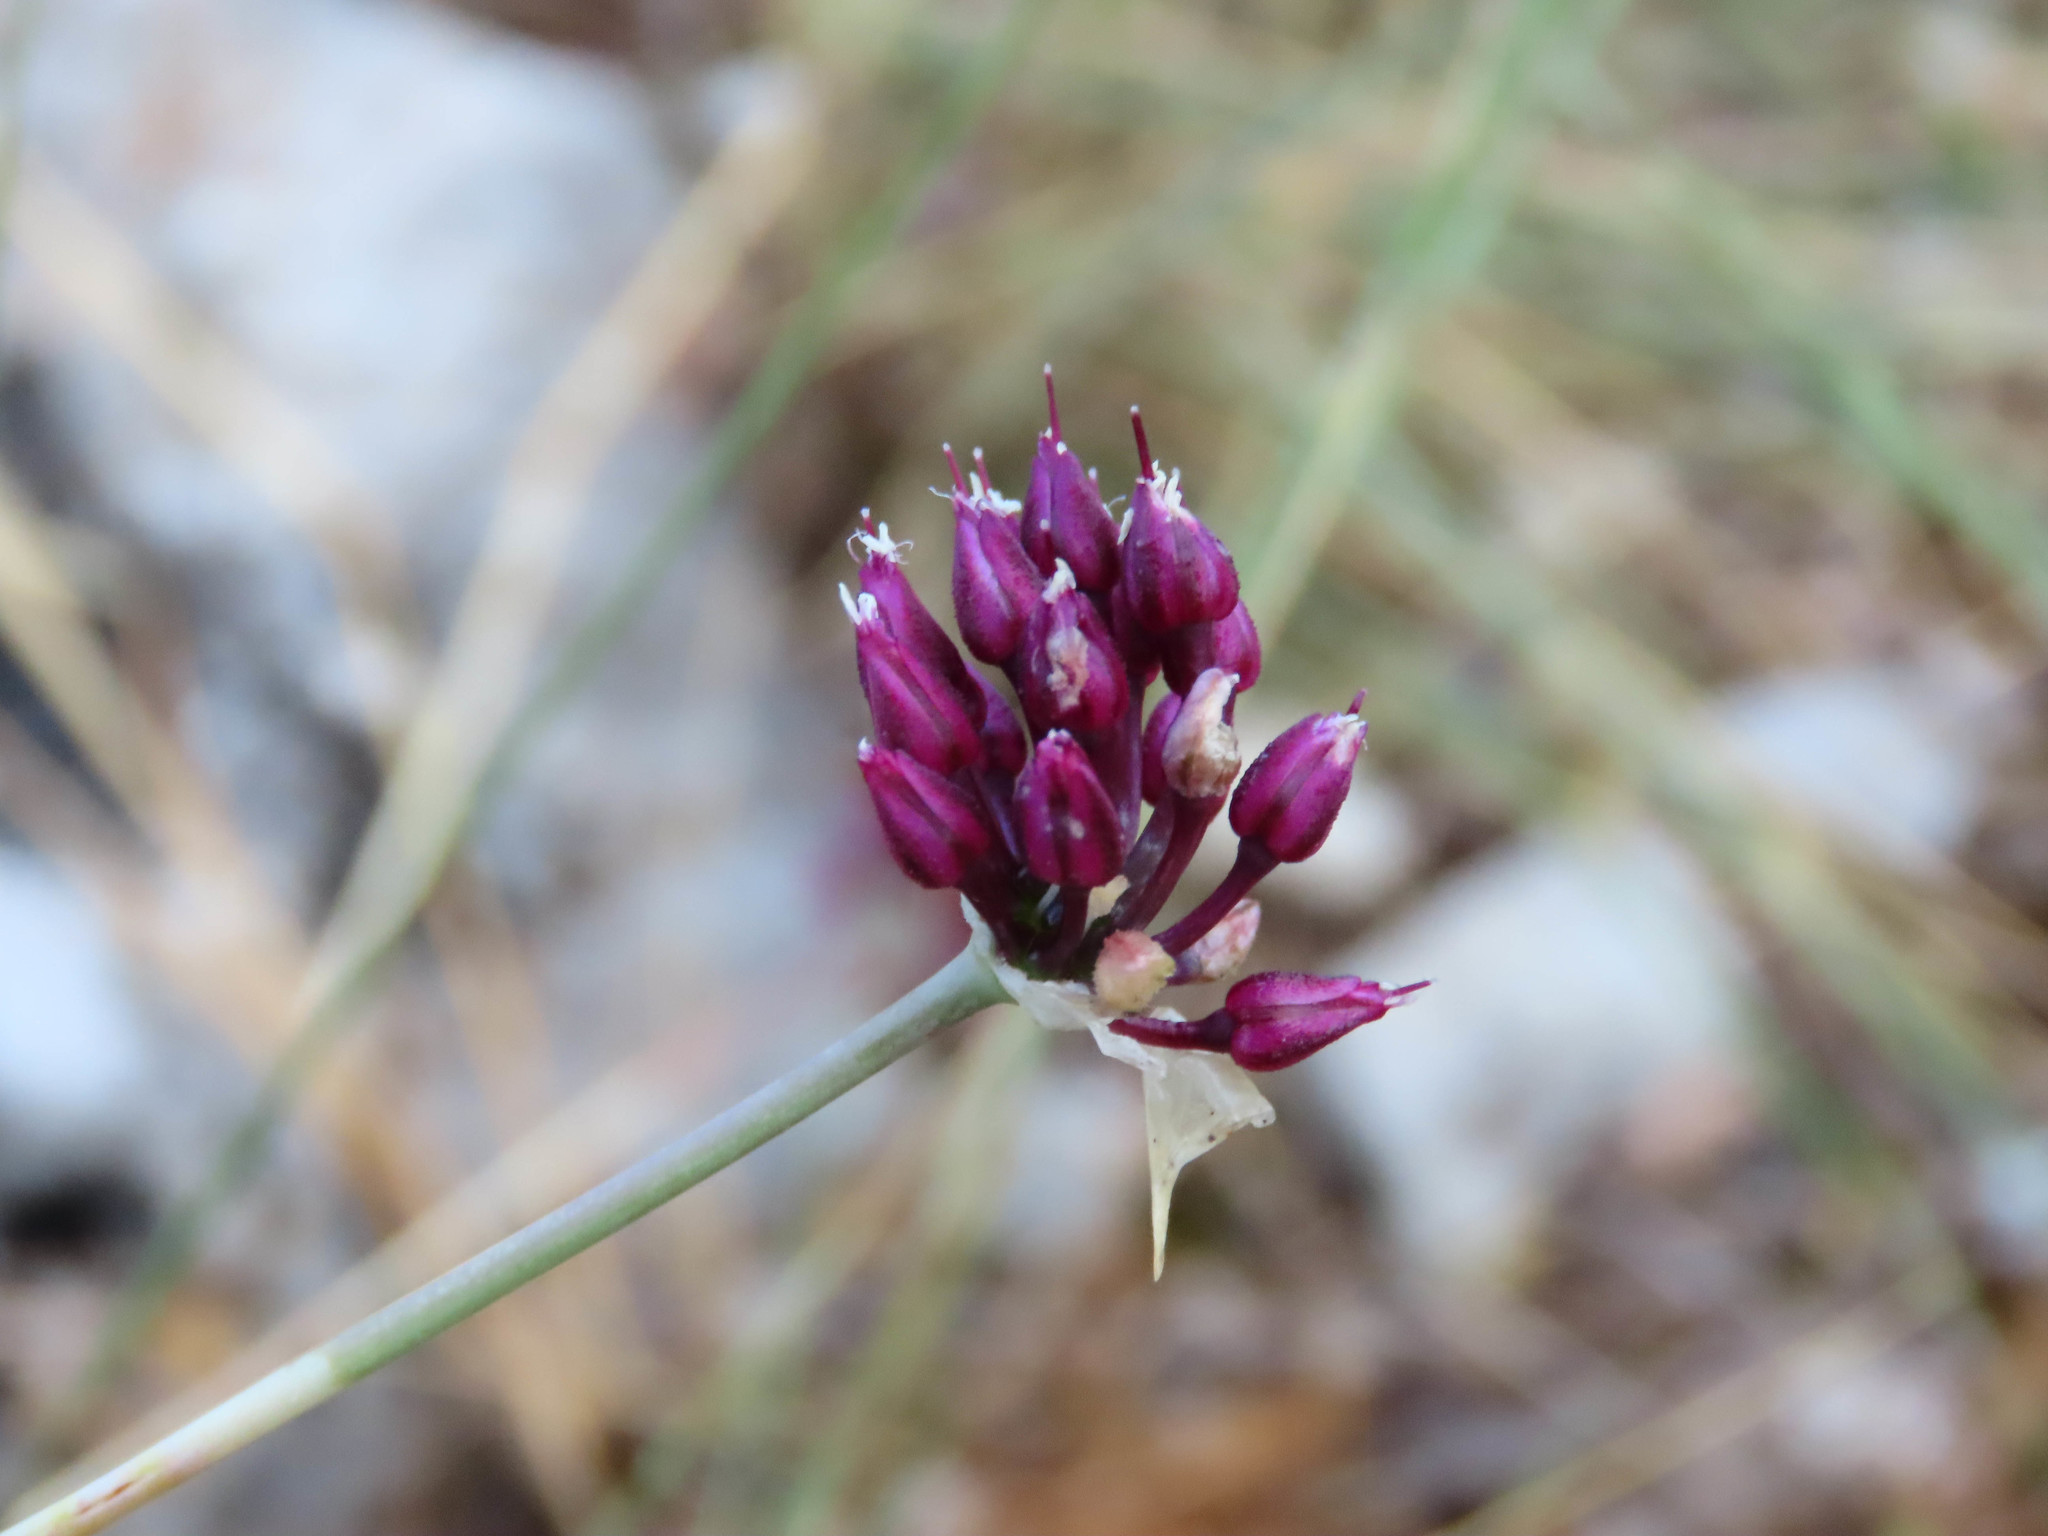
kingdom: Plantae
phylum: Tracheophyta
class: Liliopsida
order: Asparagales
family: Amaryllidaceae
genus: Allium
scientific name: Allium sphaerocephalon
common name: Round-headed leek
